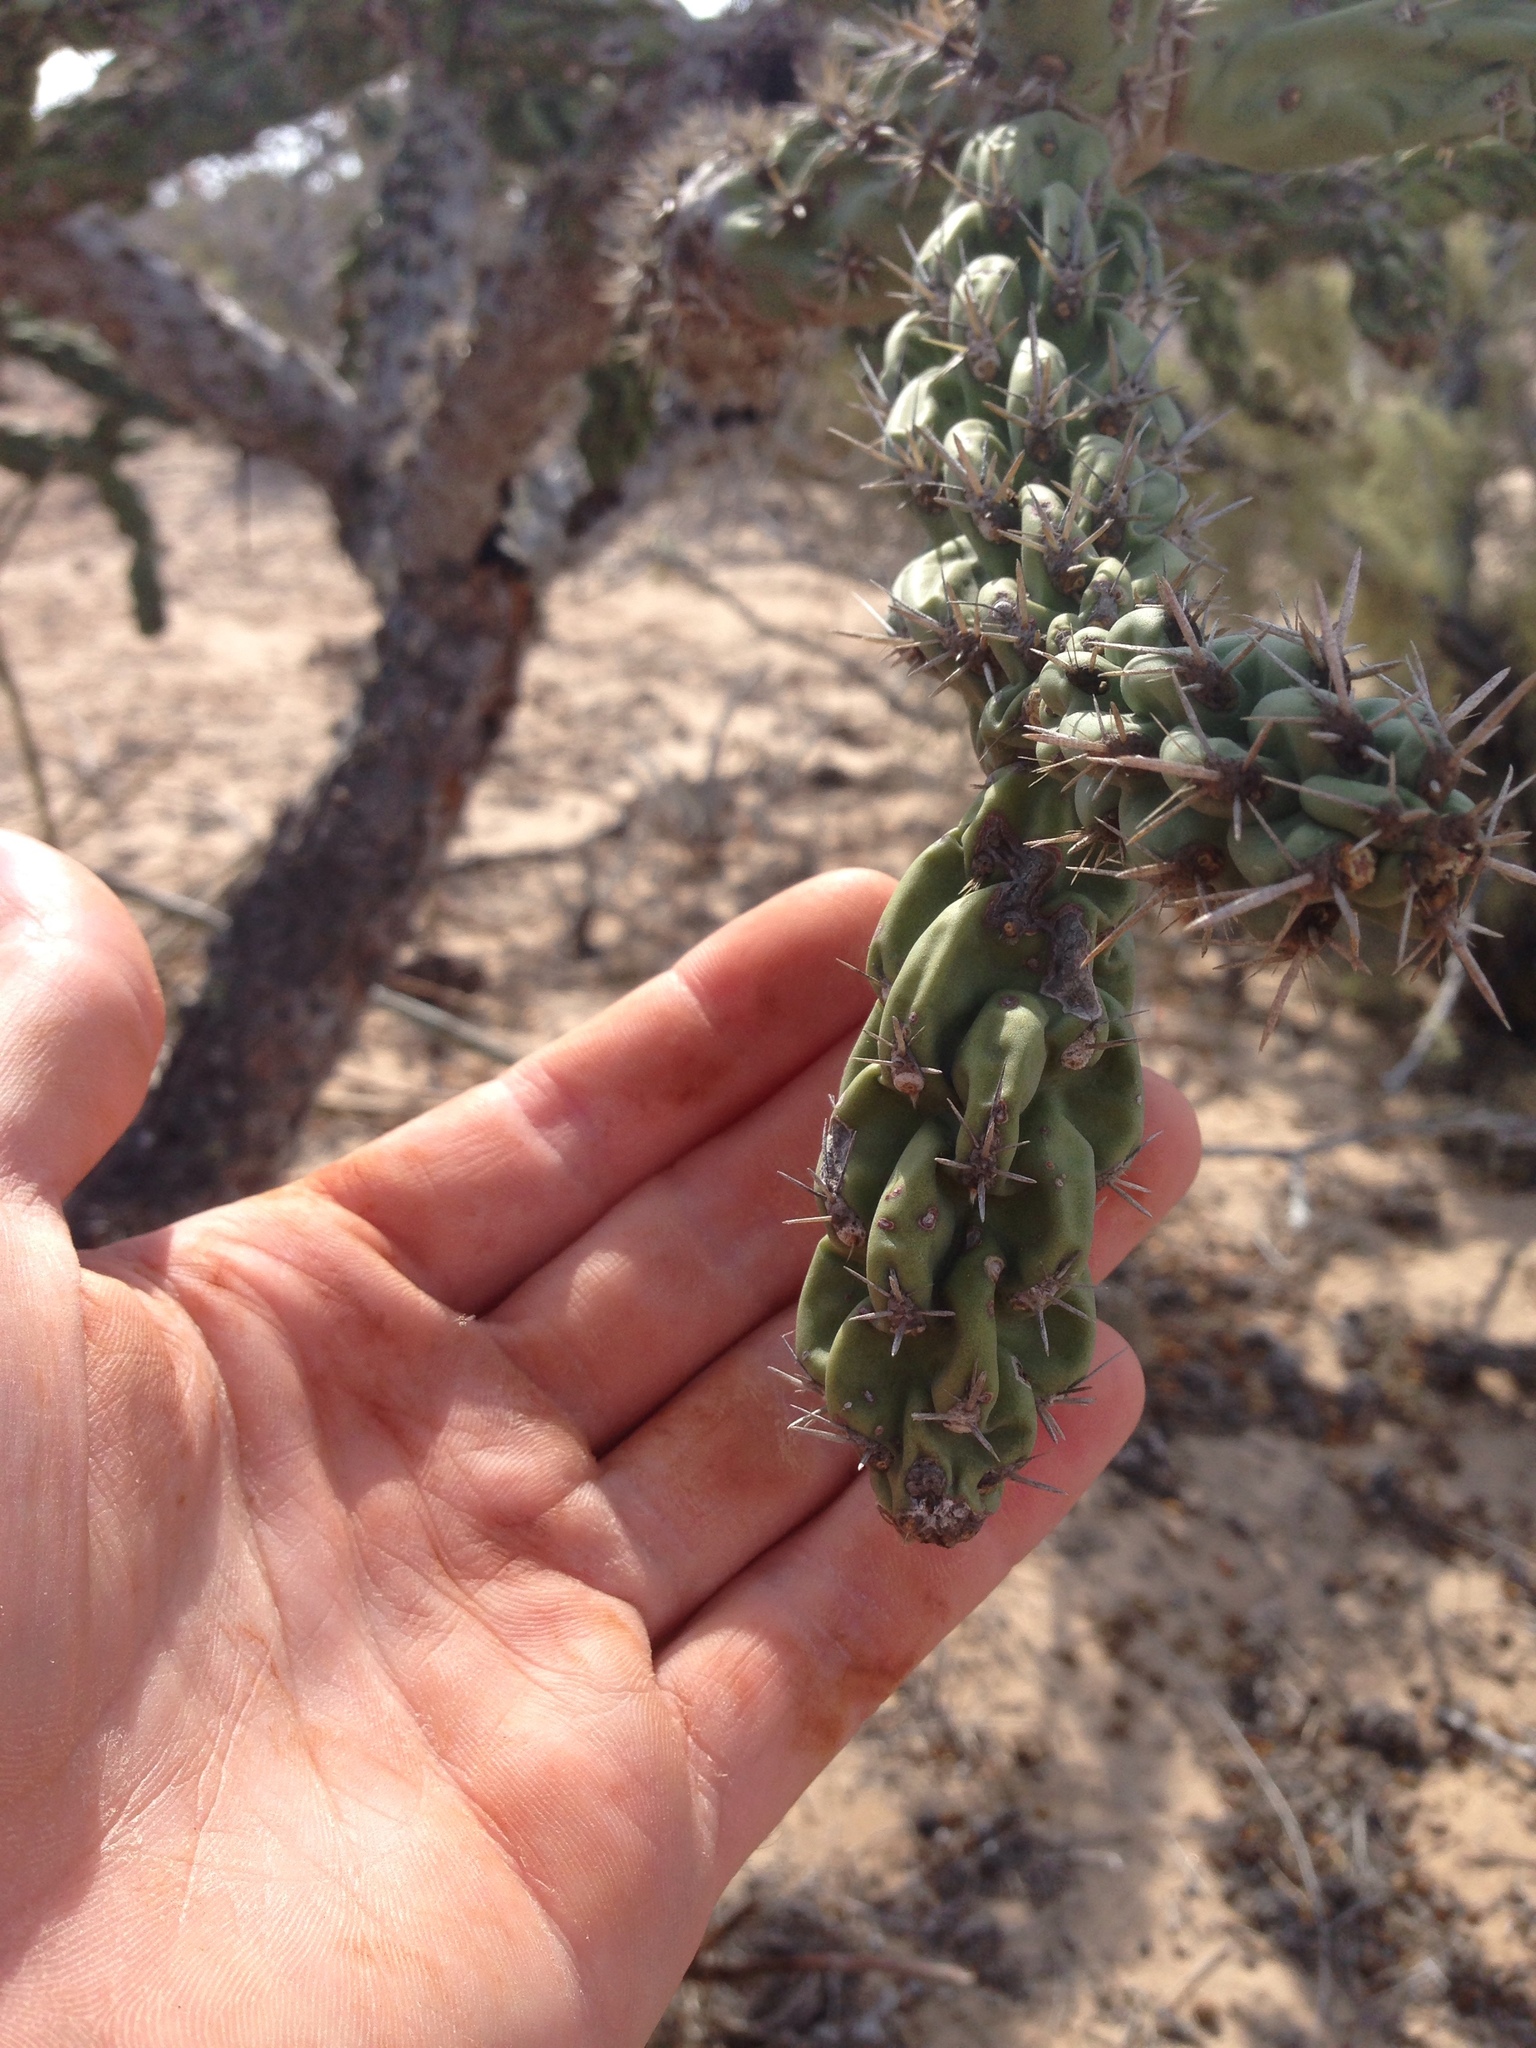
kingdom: Plantae
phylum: Tracheophyta
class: Magnoliopsida
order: Caryophyllales
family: Cactaceae
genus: Cylindropuntia
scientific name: Cylindropuntia cholla
